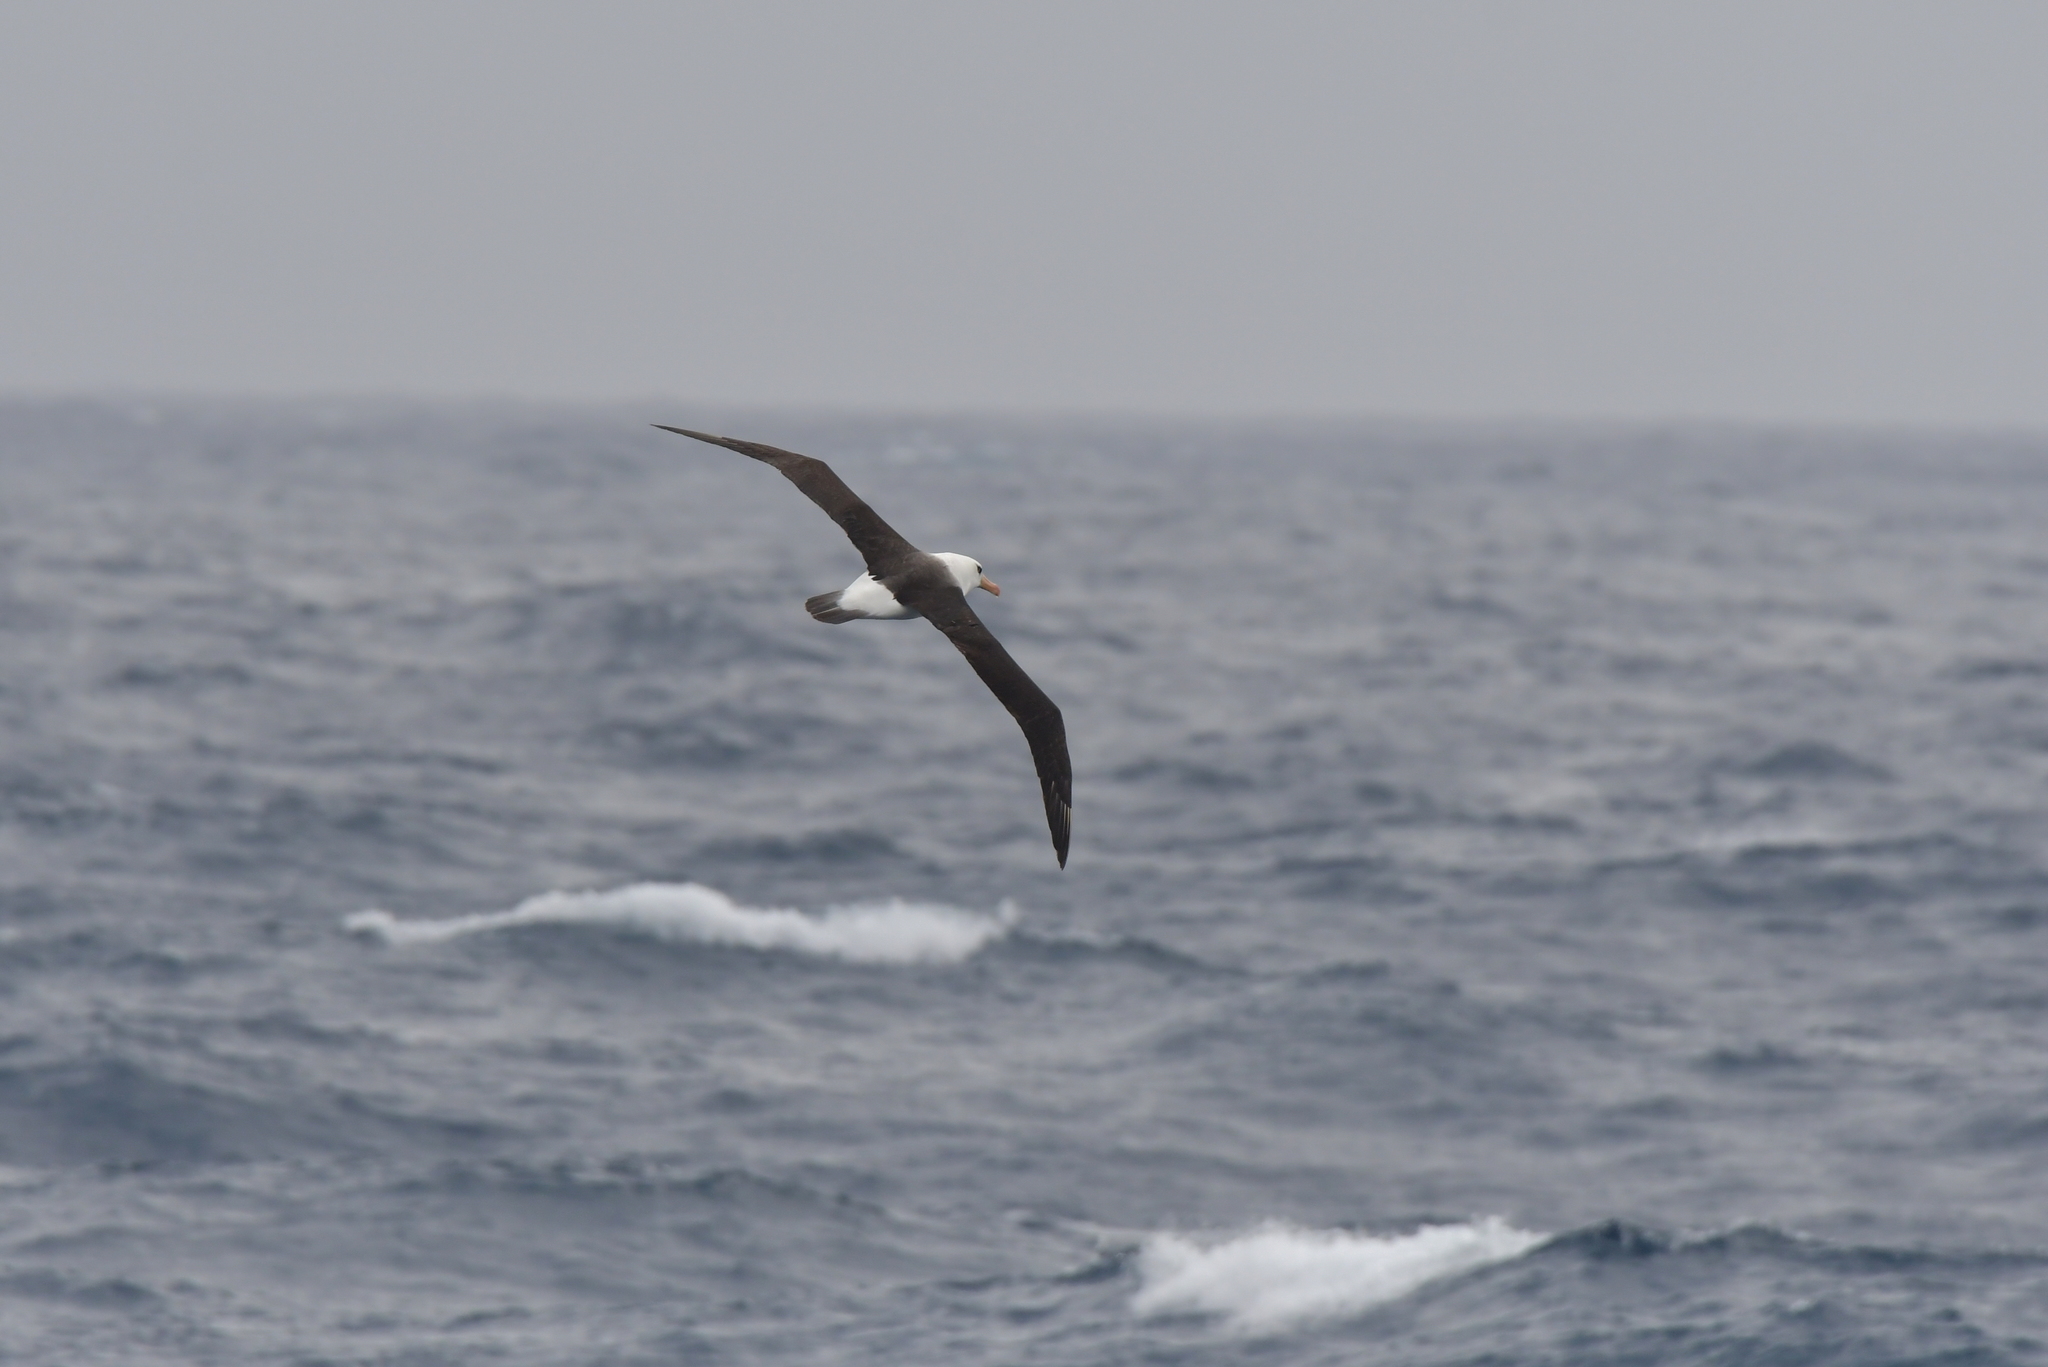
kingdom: Animalia
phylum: Chordata
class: Aves
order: Procellariiformes
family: Diomedeidae
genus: Thalassarche
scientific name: Thalassarche impavida
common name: Campbell albatross
